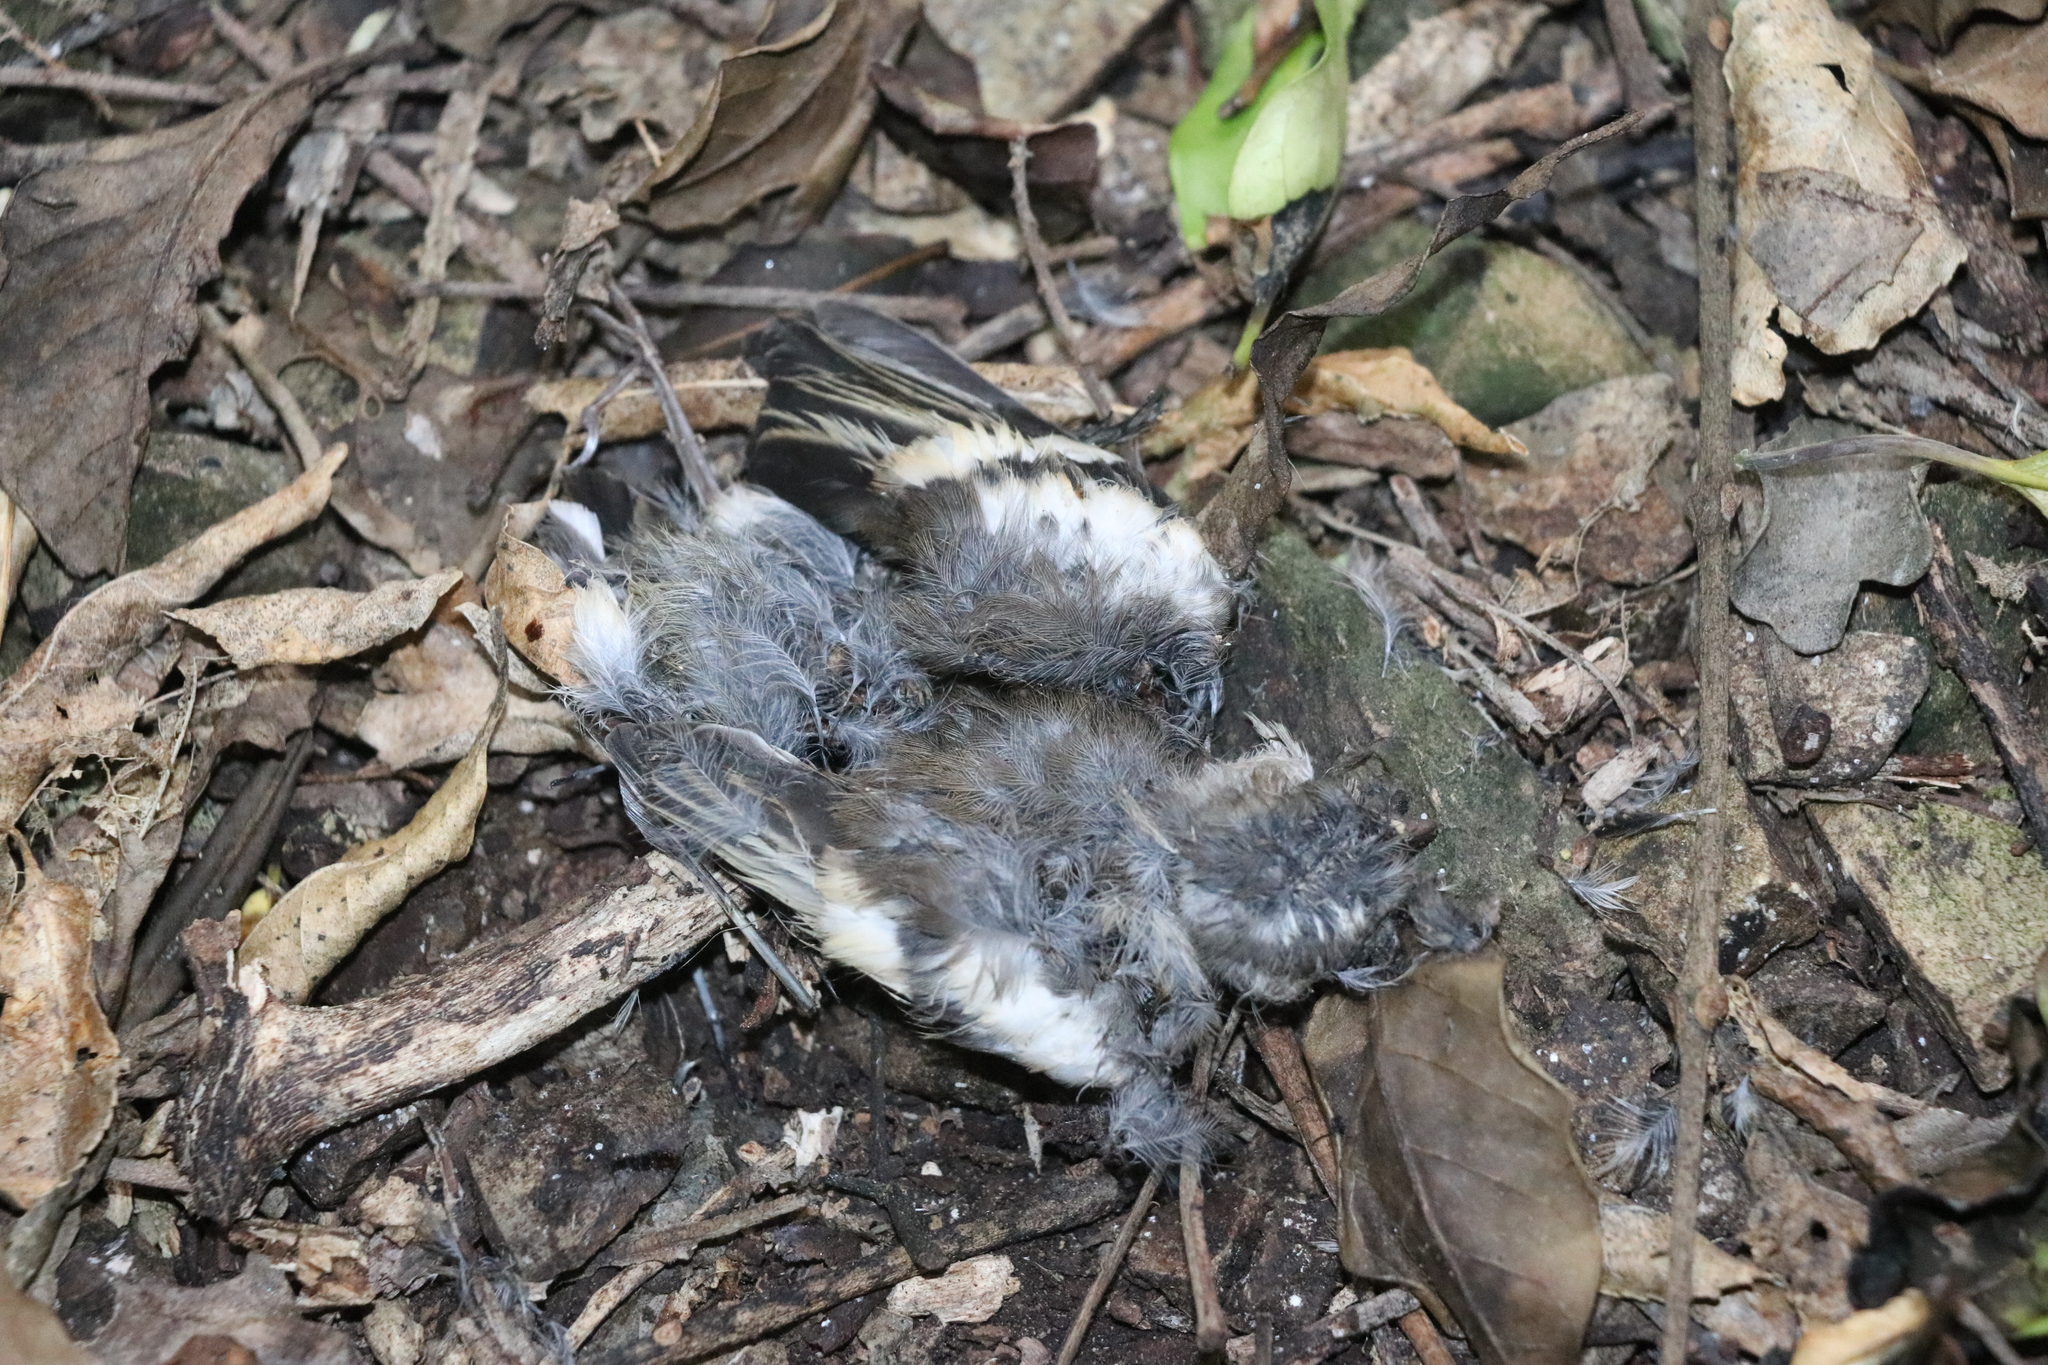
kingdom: Animalia
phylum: Chordata
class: Aves
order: Passeriformes
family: Fringillidae
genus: Fringilla
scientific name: Fringilla coelebs
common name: Common chaffinch
